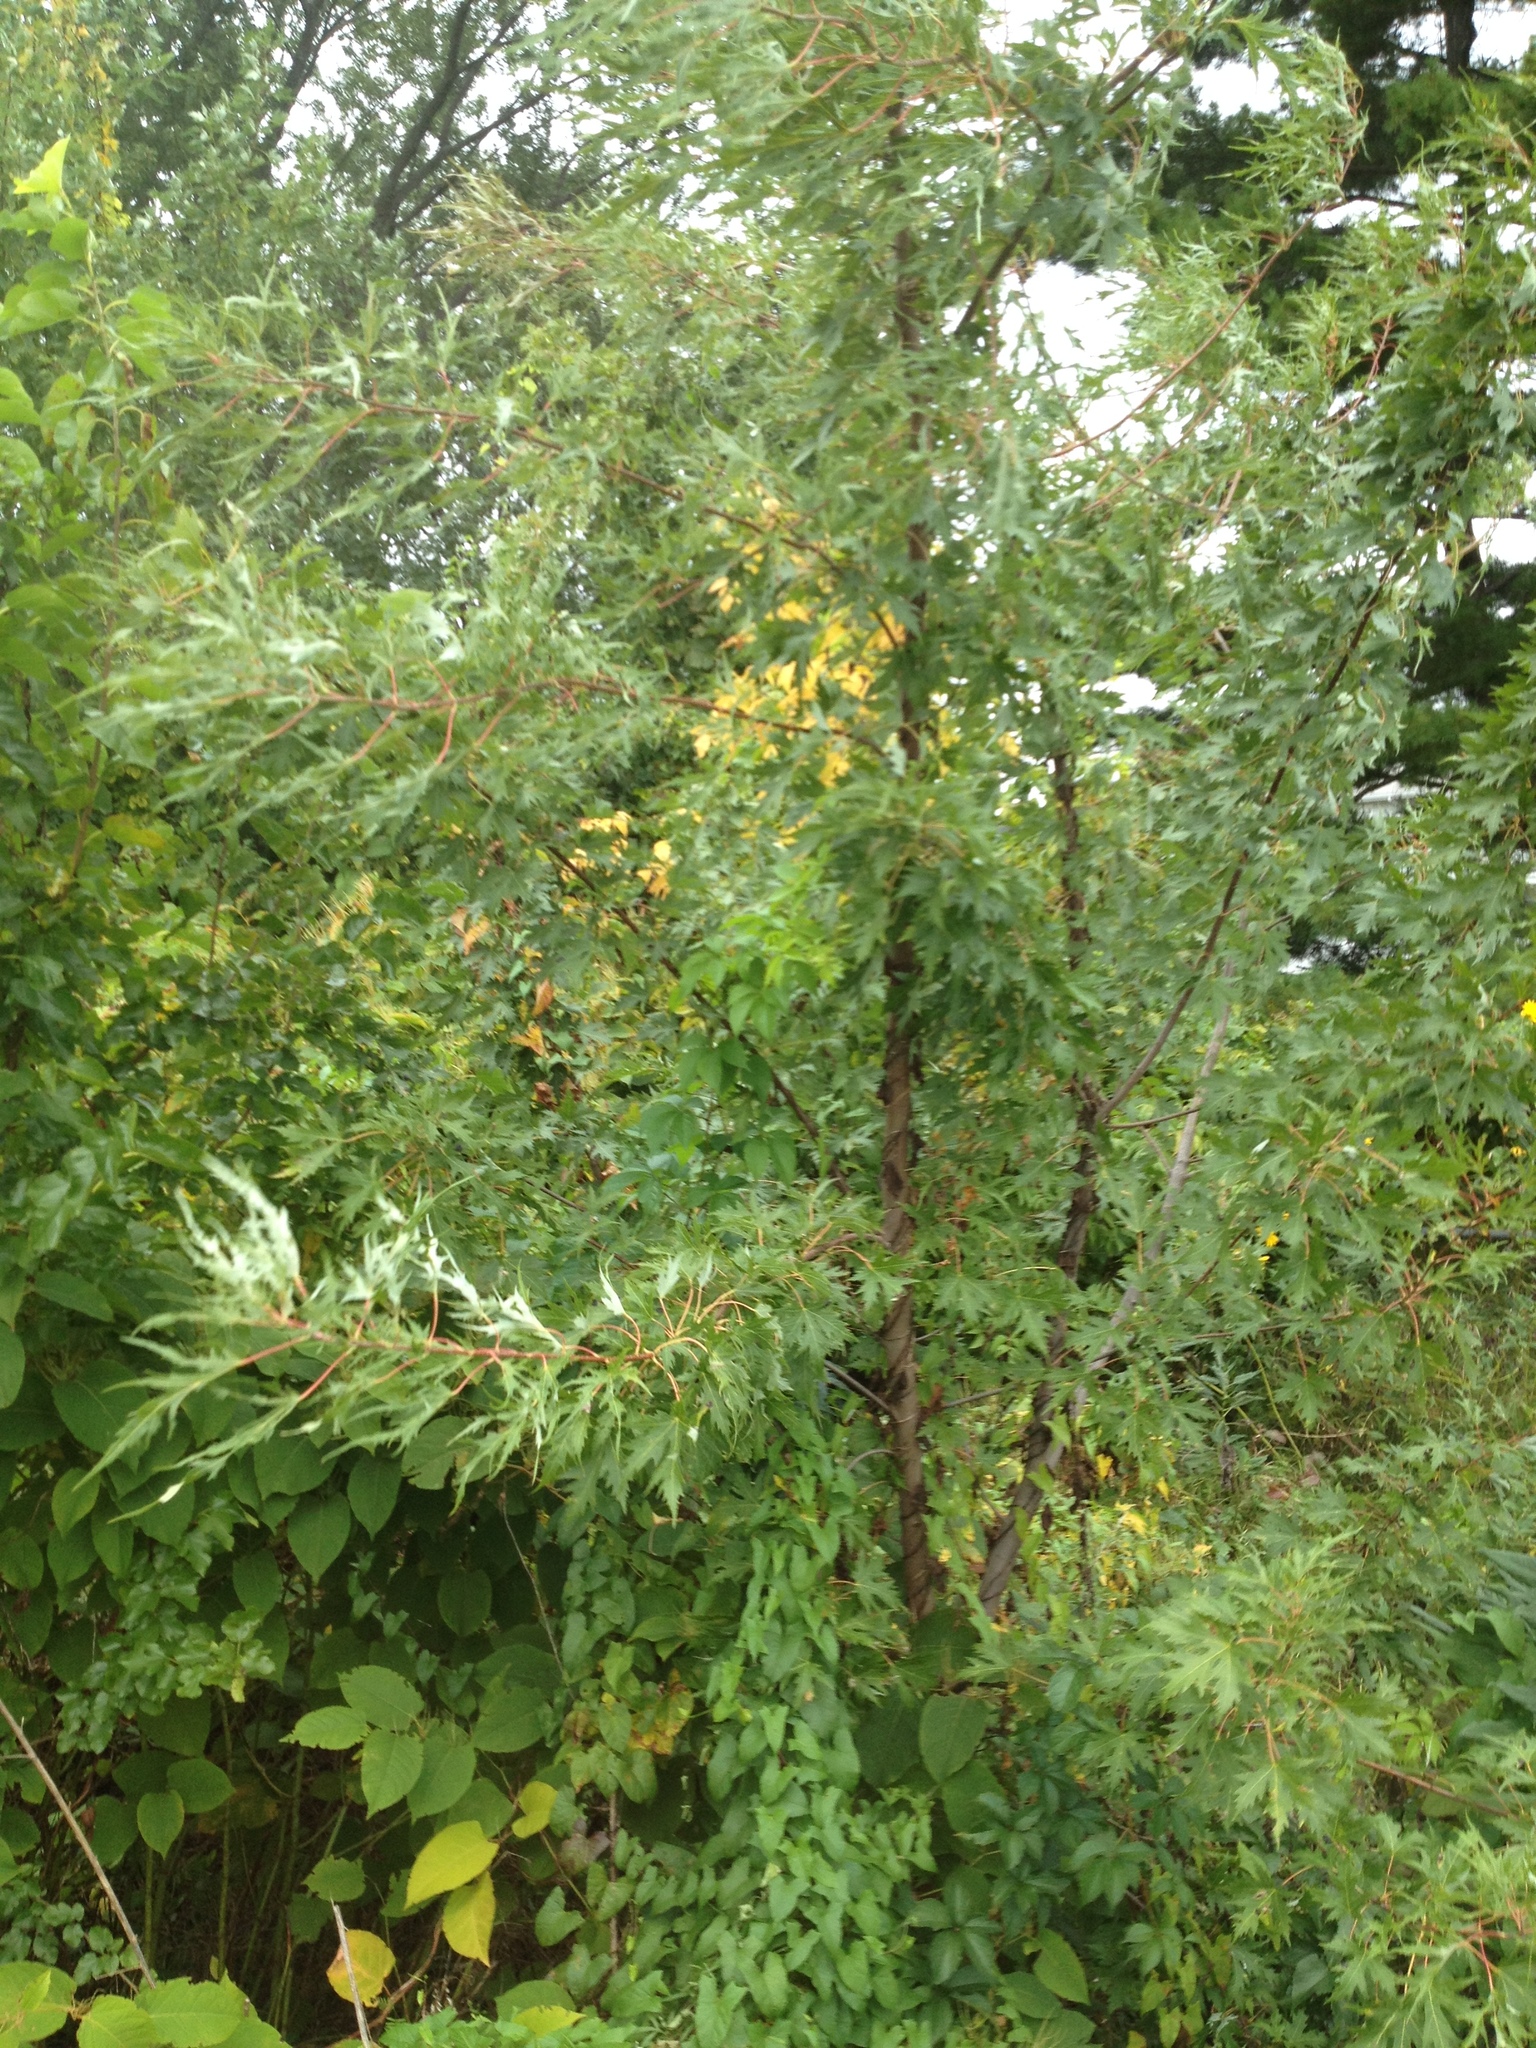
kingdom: Plantae
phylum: Tracheophyta
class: Magnoliopsida
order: Sapindales
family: Sapindaceae
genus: Acer
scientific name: Acer saccharinum
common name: Silver maple
